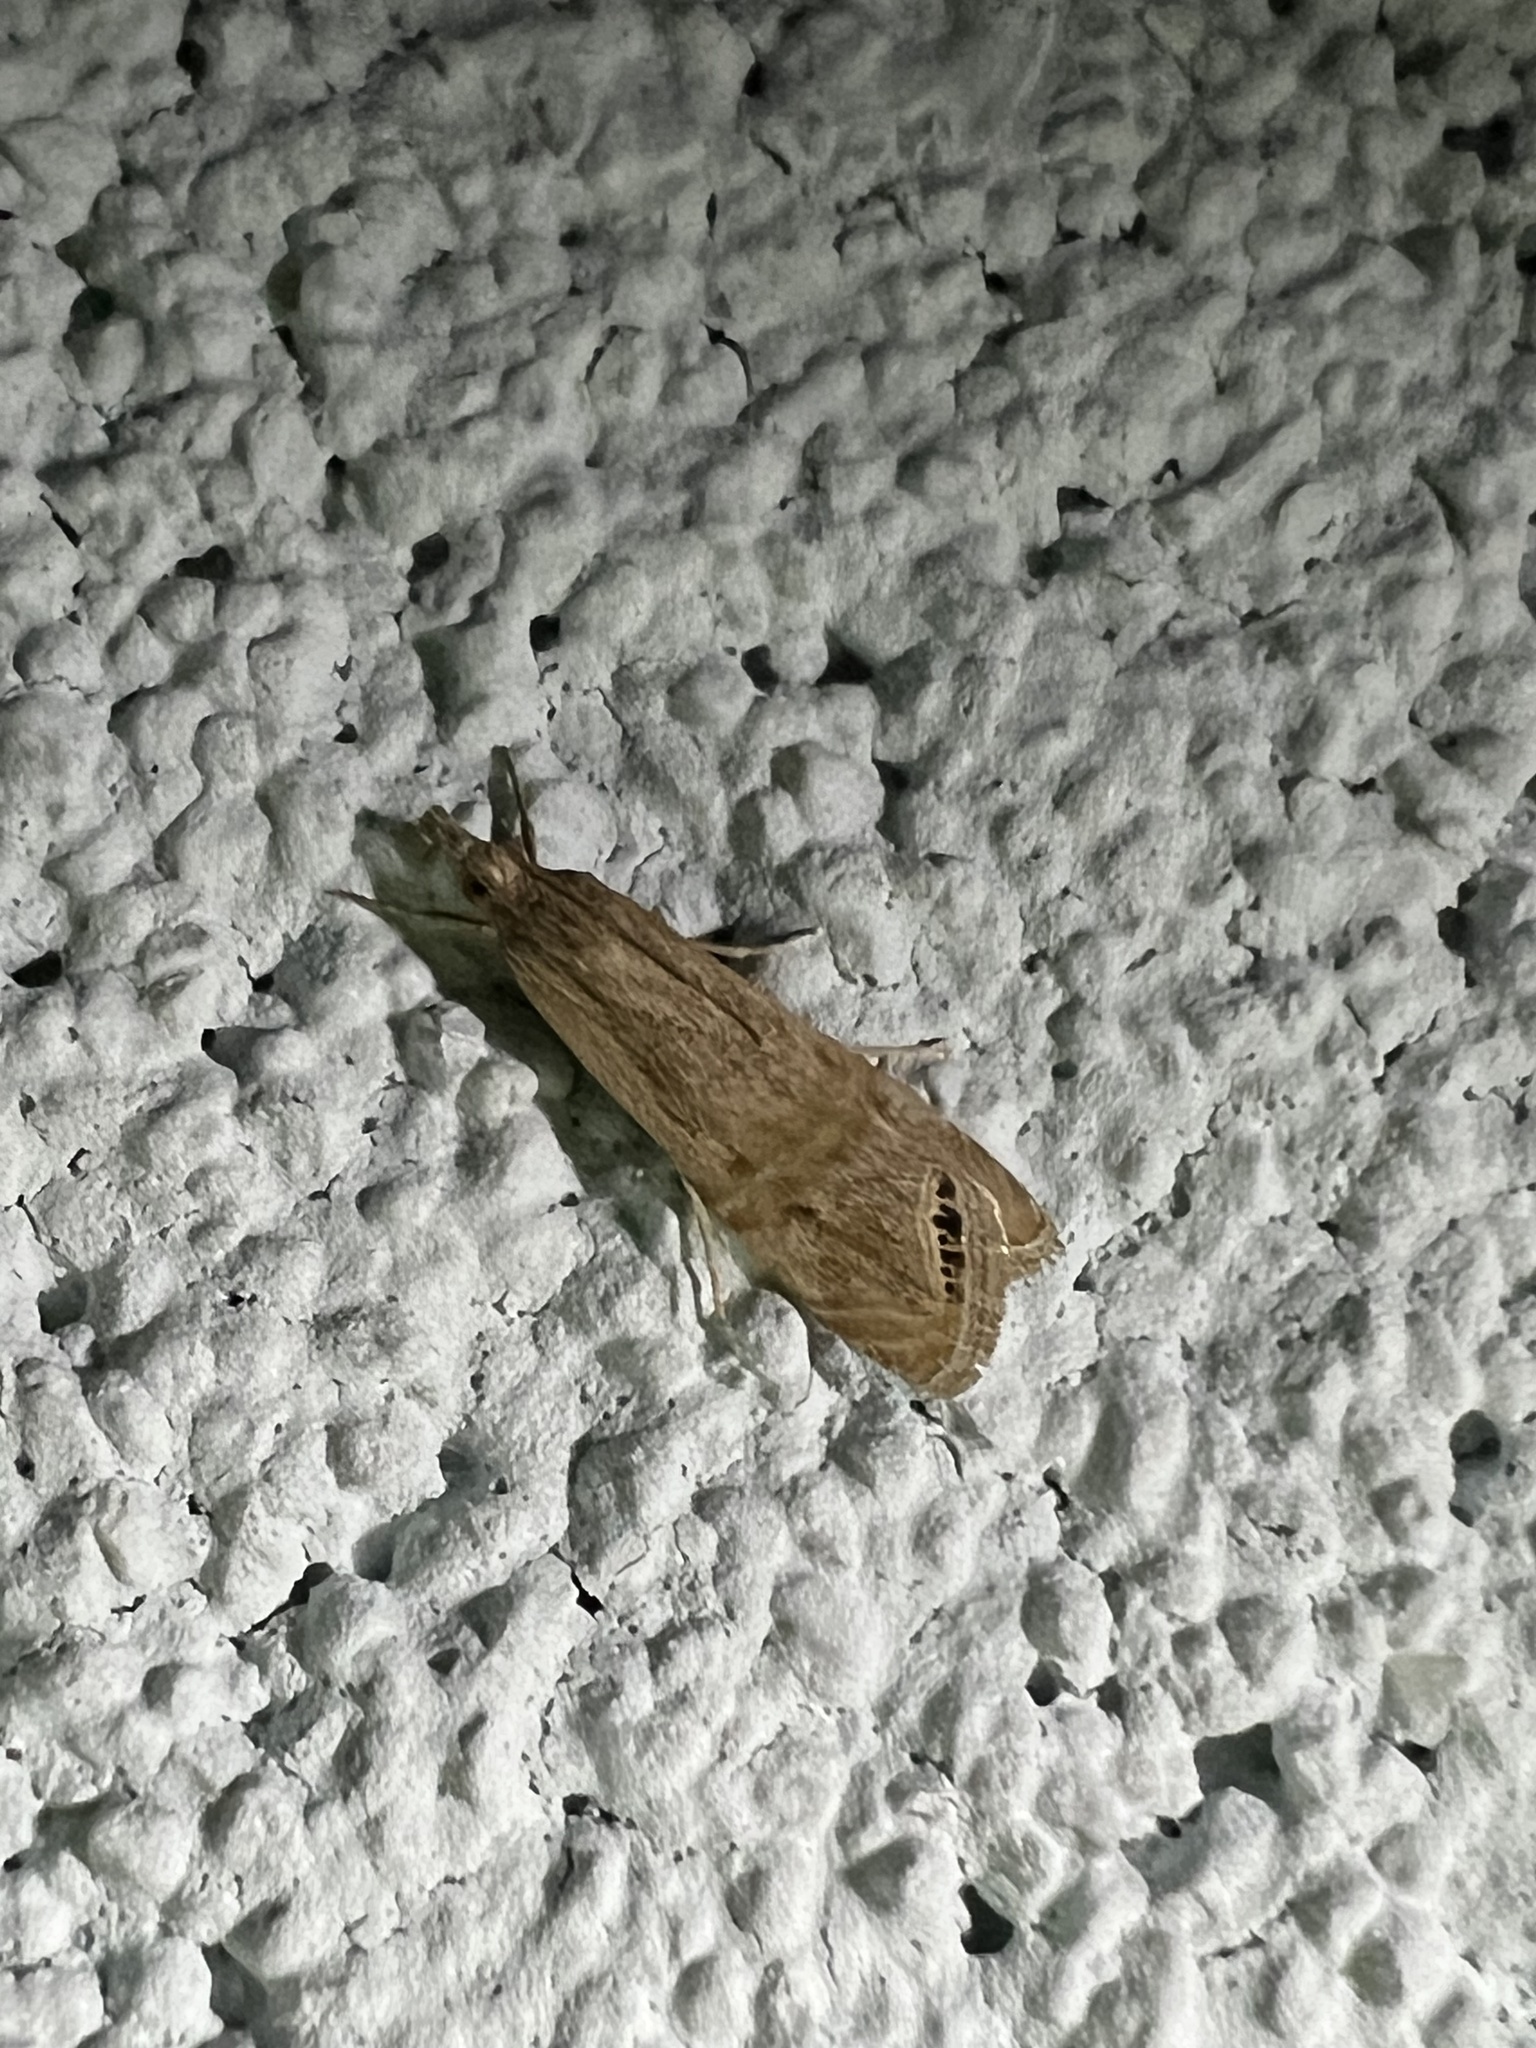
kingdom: Animalia
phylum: Arthropoda
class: Insecta
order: Lepidoptera
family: Crambidae
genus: Euchromius
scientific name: Euchromius ocellea
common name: Necklace veneer moth
